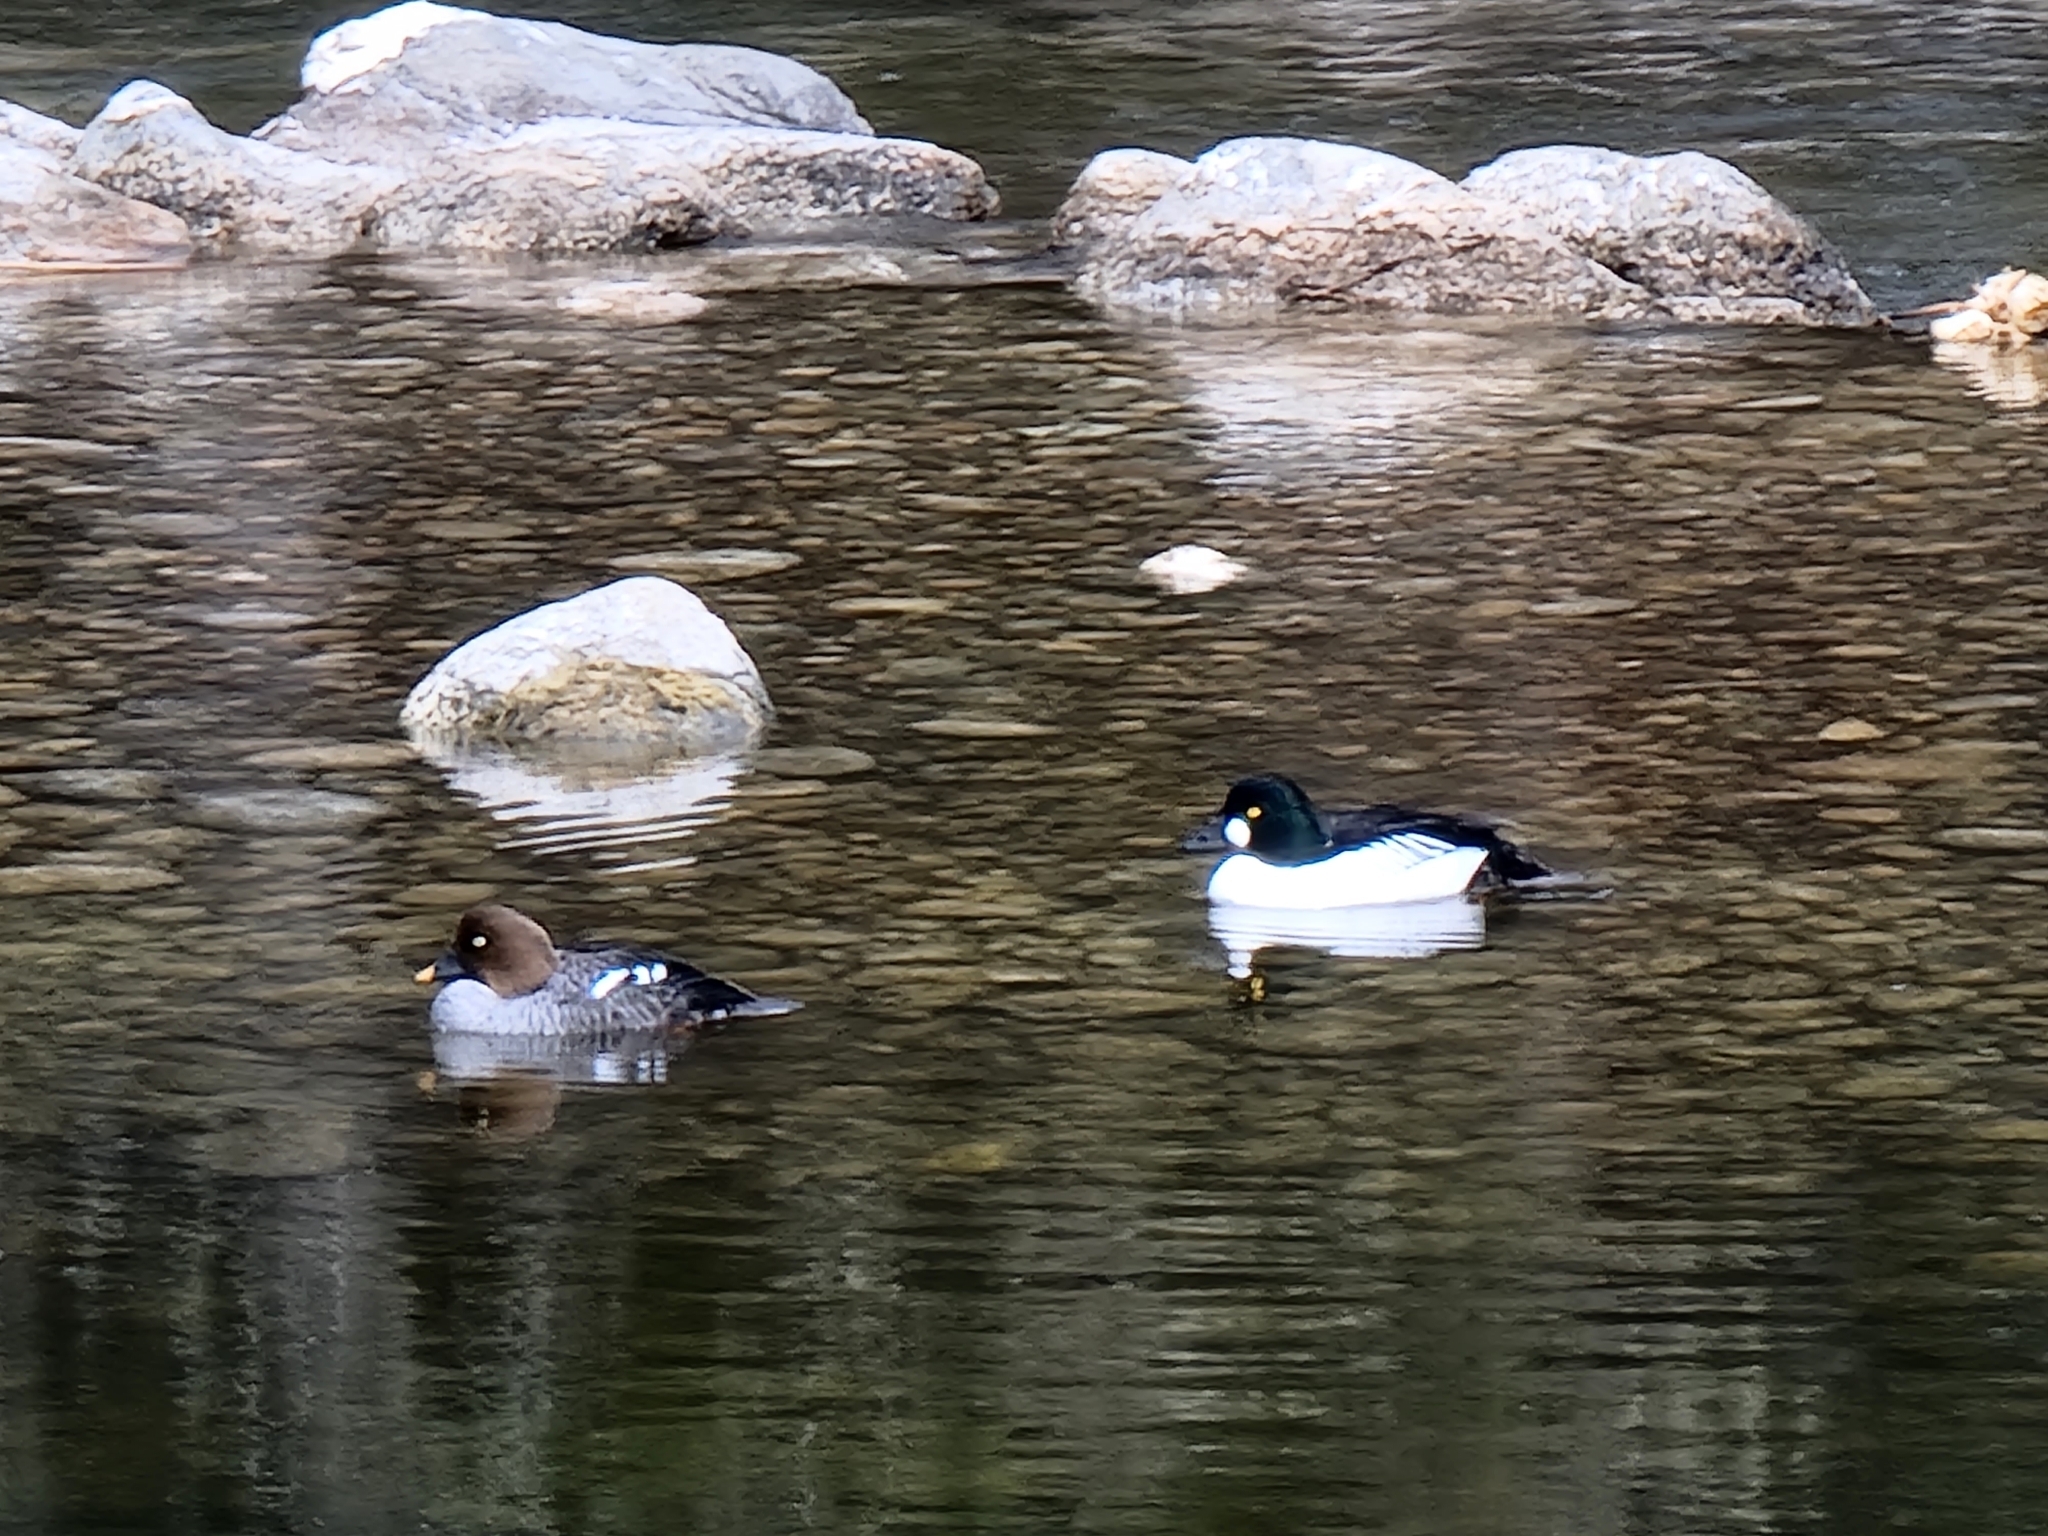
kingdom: Animalia
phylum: Chordata
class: Aves
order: Anseriformes
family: Anatidae
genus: Bucephala
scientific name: Bucephala clangula
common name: Common goldeneye
